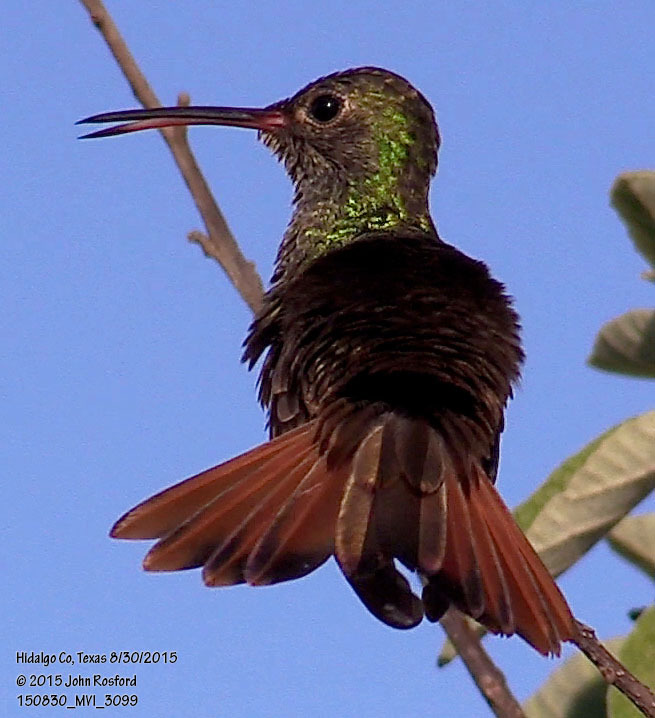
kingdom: Animalia
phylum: Chordata
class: Aves
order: Apodiformes
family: Trochilidae
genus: Amazilia
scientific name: Amazilia yucatanensis
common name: Buff-bellied hummingbird
